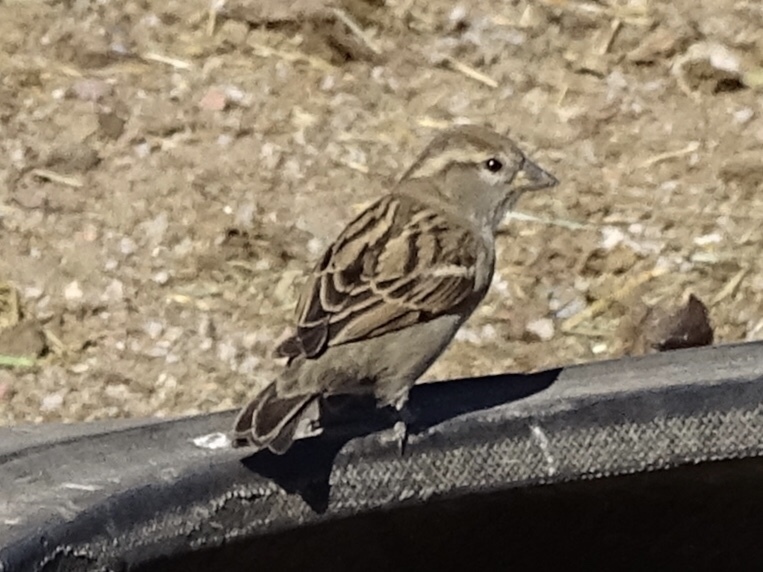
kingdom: Animalia
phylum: Chordata
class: Aves
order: Passeriformes
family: Passeridae
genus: Passer
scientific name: Passer domesticus
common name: House sparrow
